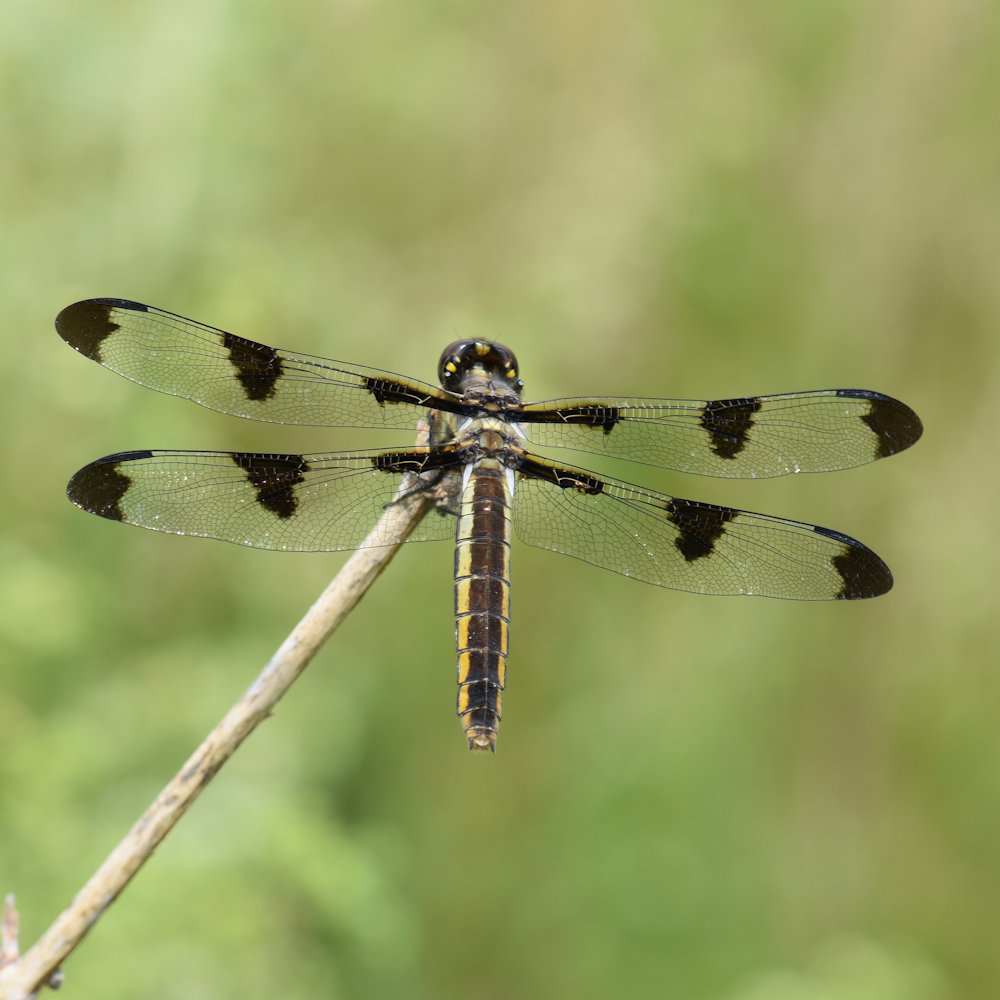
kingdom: Animalia
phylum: Arthropoda
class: Insecta
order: Odonata
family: Libellulidae
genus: Libellula
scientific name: Libellula pulchella
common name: Twelve-spotted skimmer
